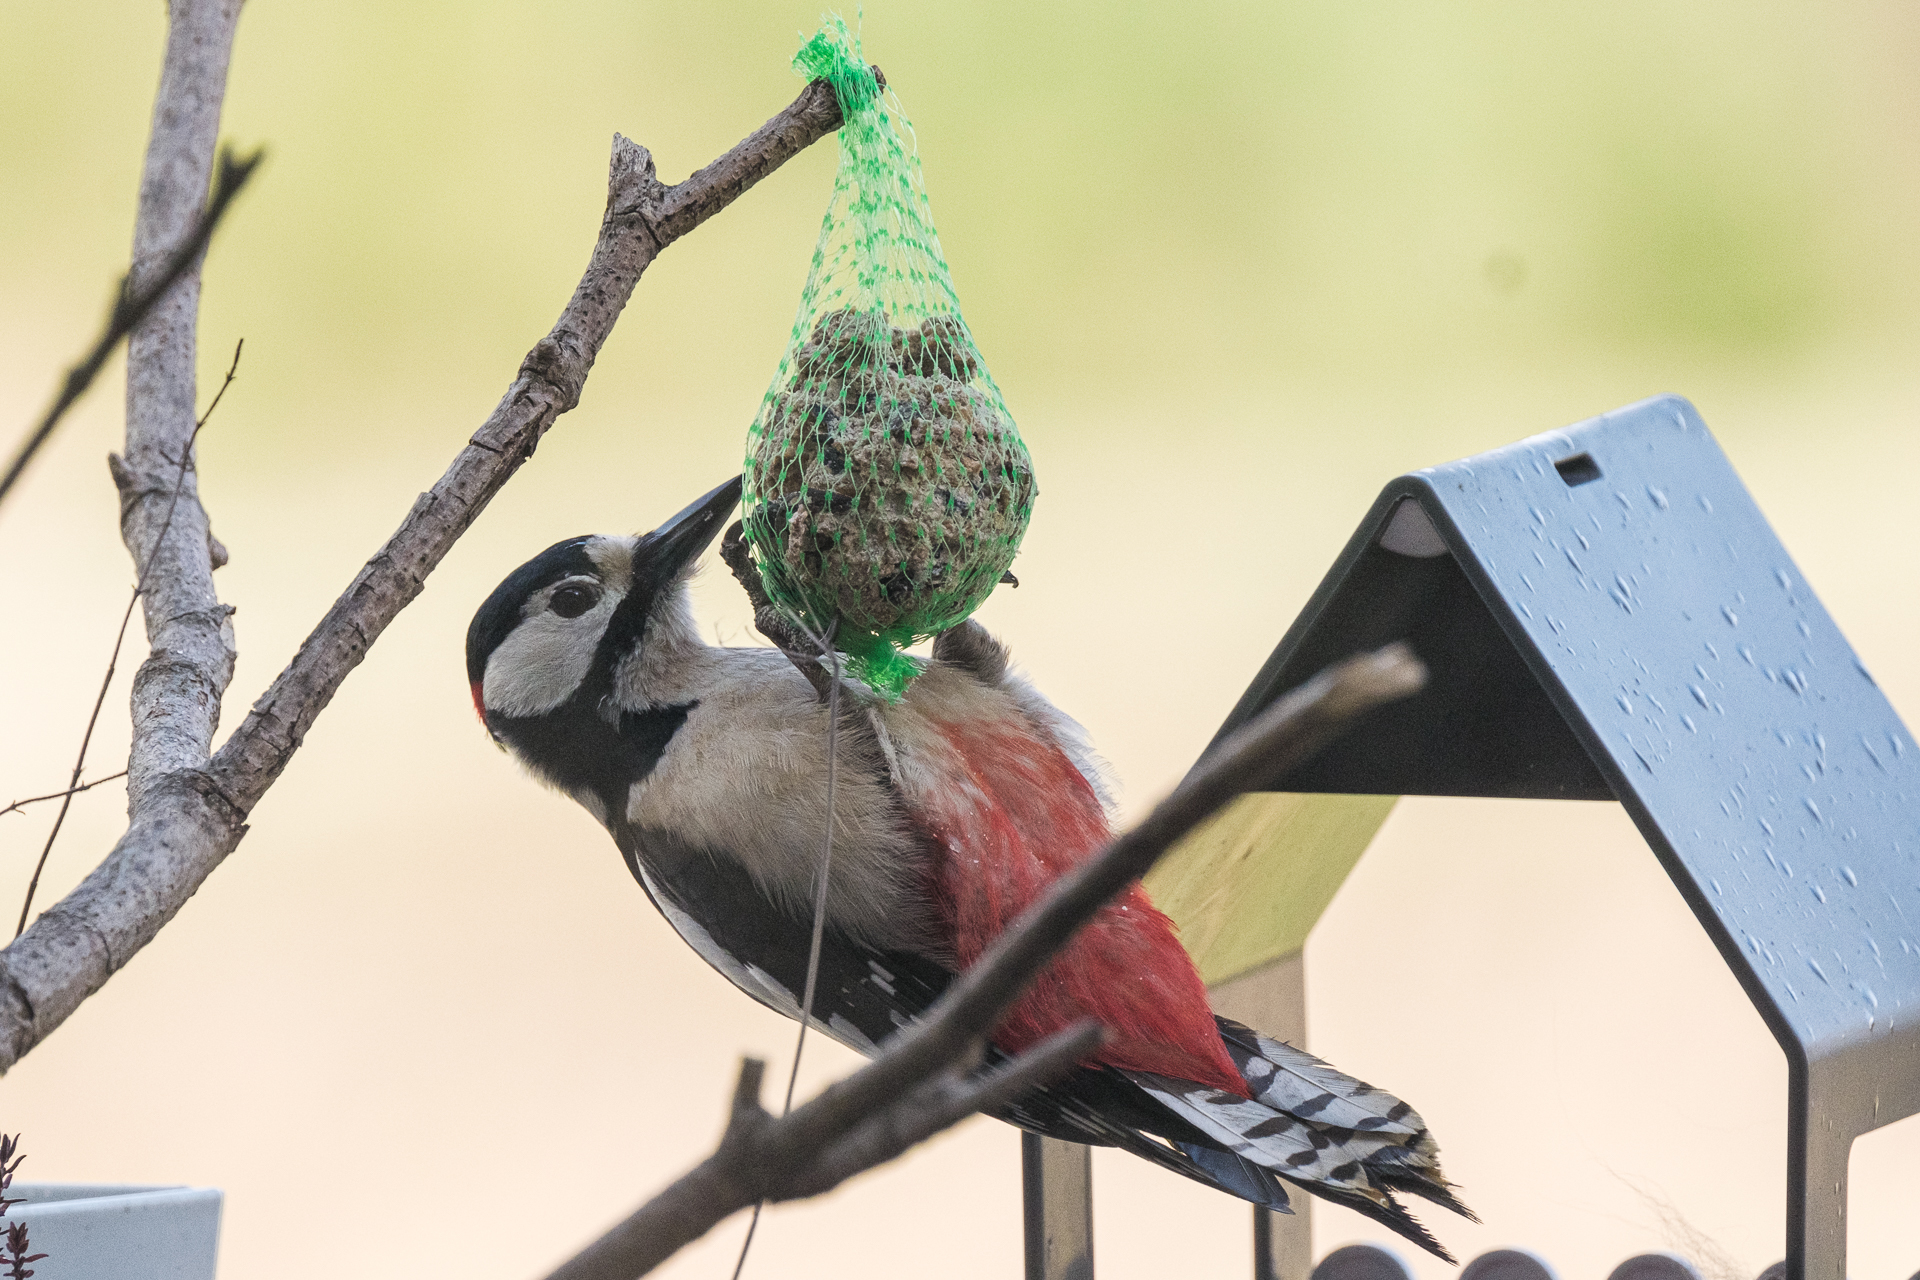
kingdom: Animalia
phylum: Chordata
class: Aves
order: Piciformes
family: Picidae
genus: Dendrocopos
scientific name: Dendrocopos major
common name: Great spotted woodpecker
